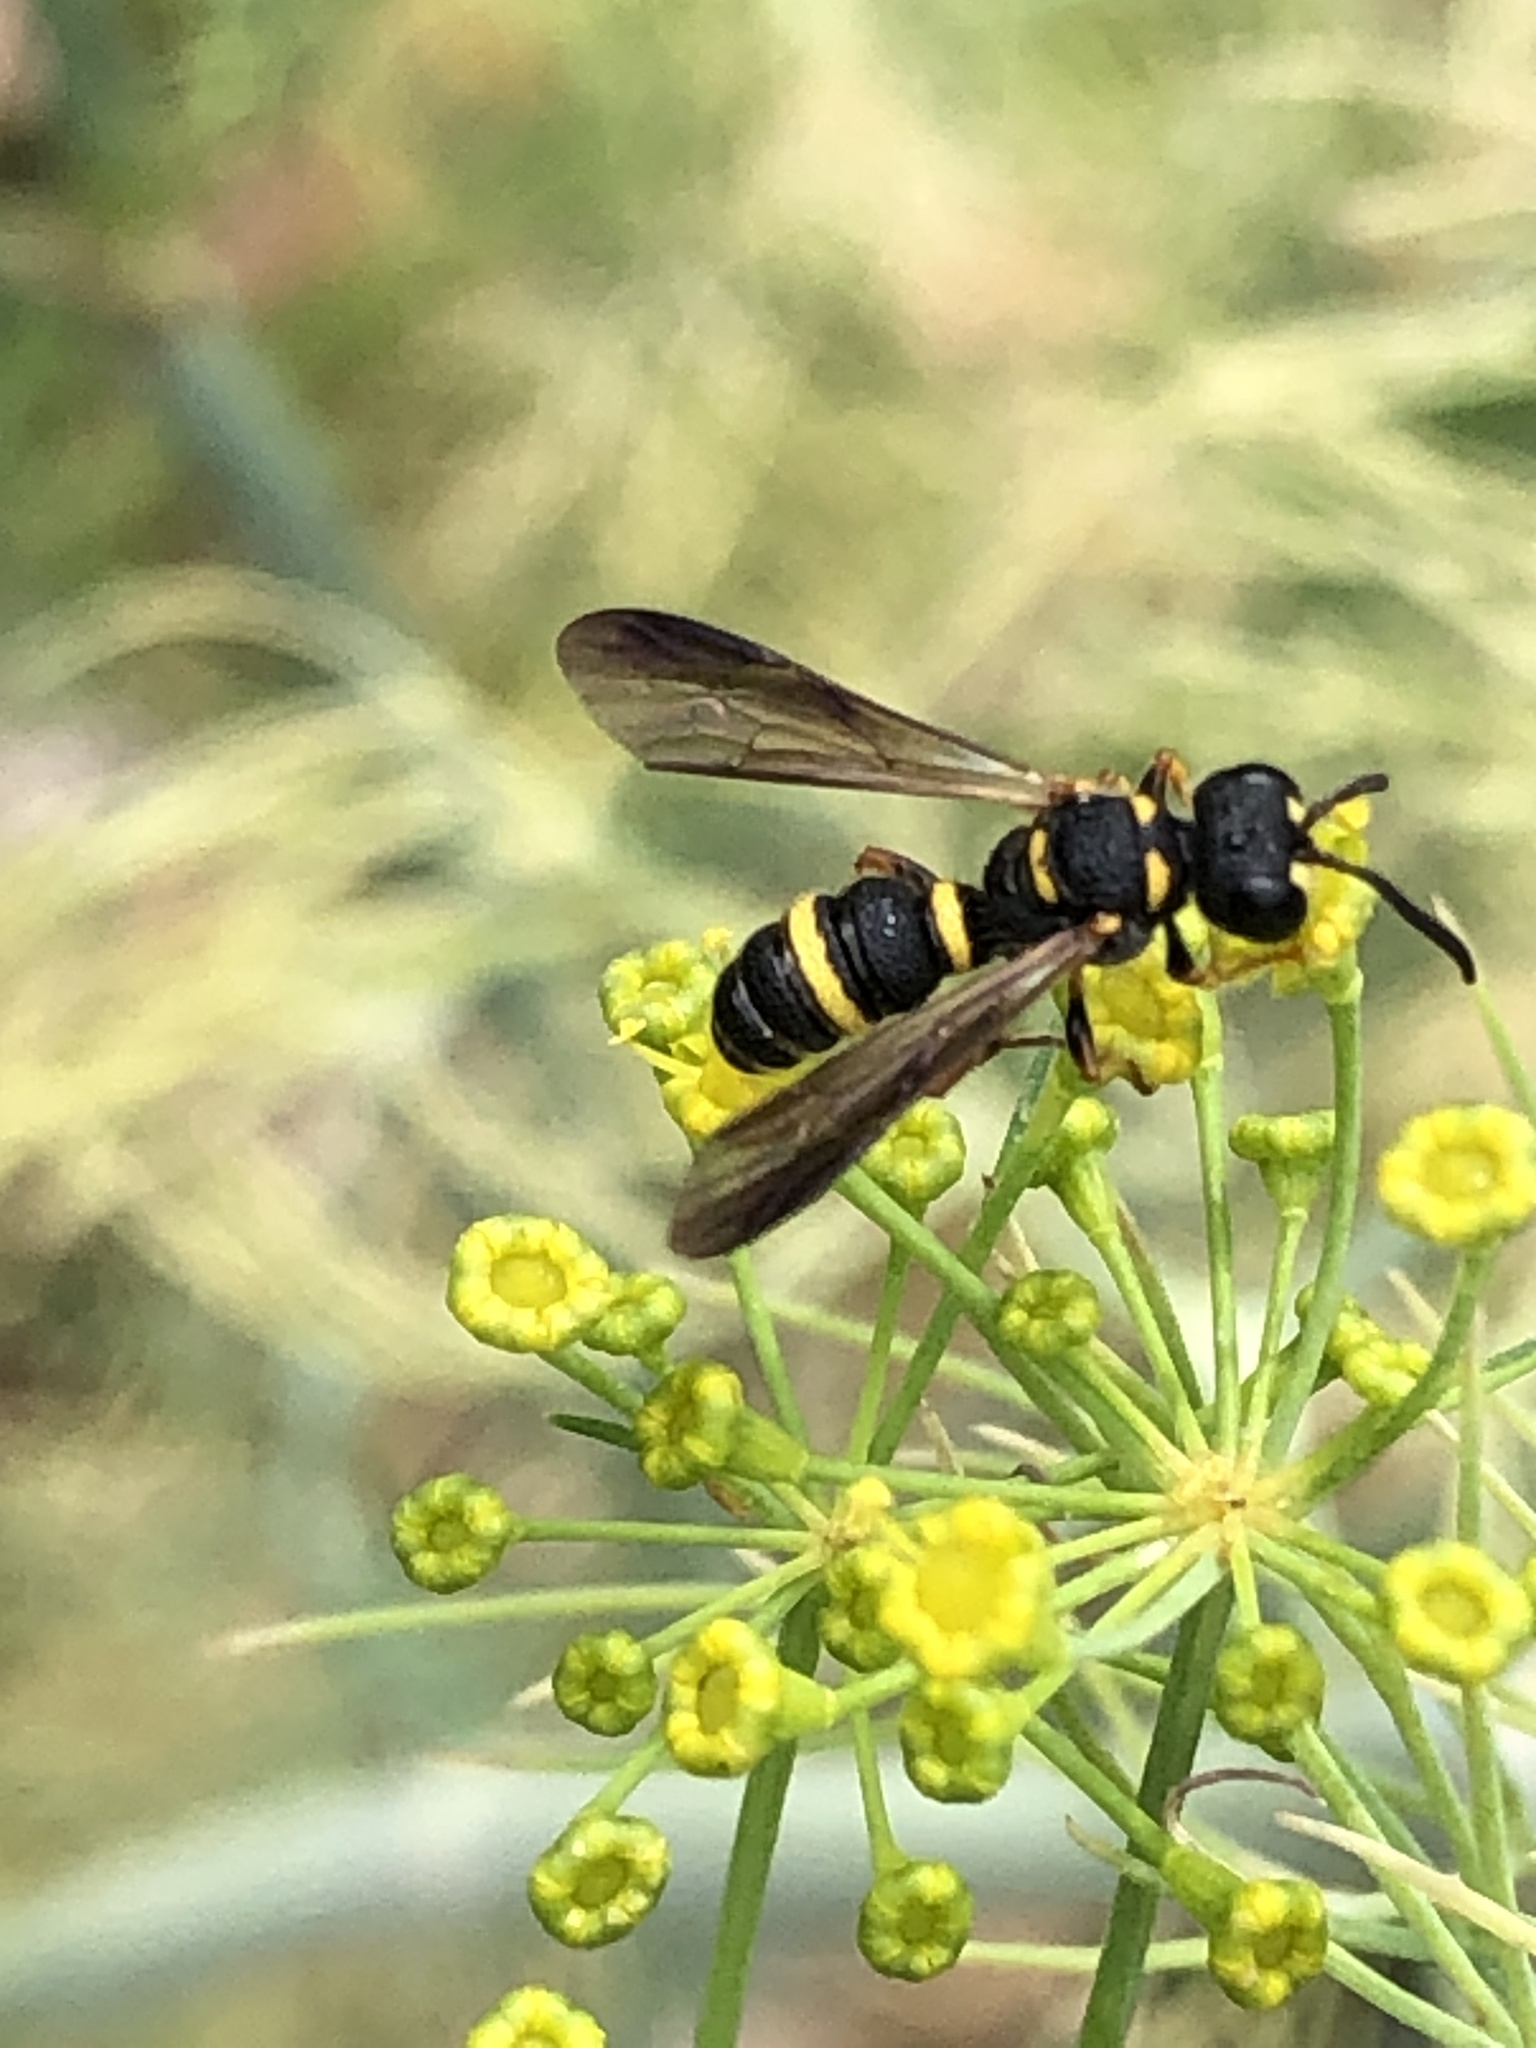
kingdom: Animalia
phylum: Arthropoda
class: Insecta
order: Hymenoptera
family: Crabronidae
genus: Cerceris
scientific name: Cerceris insolita
